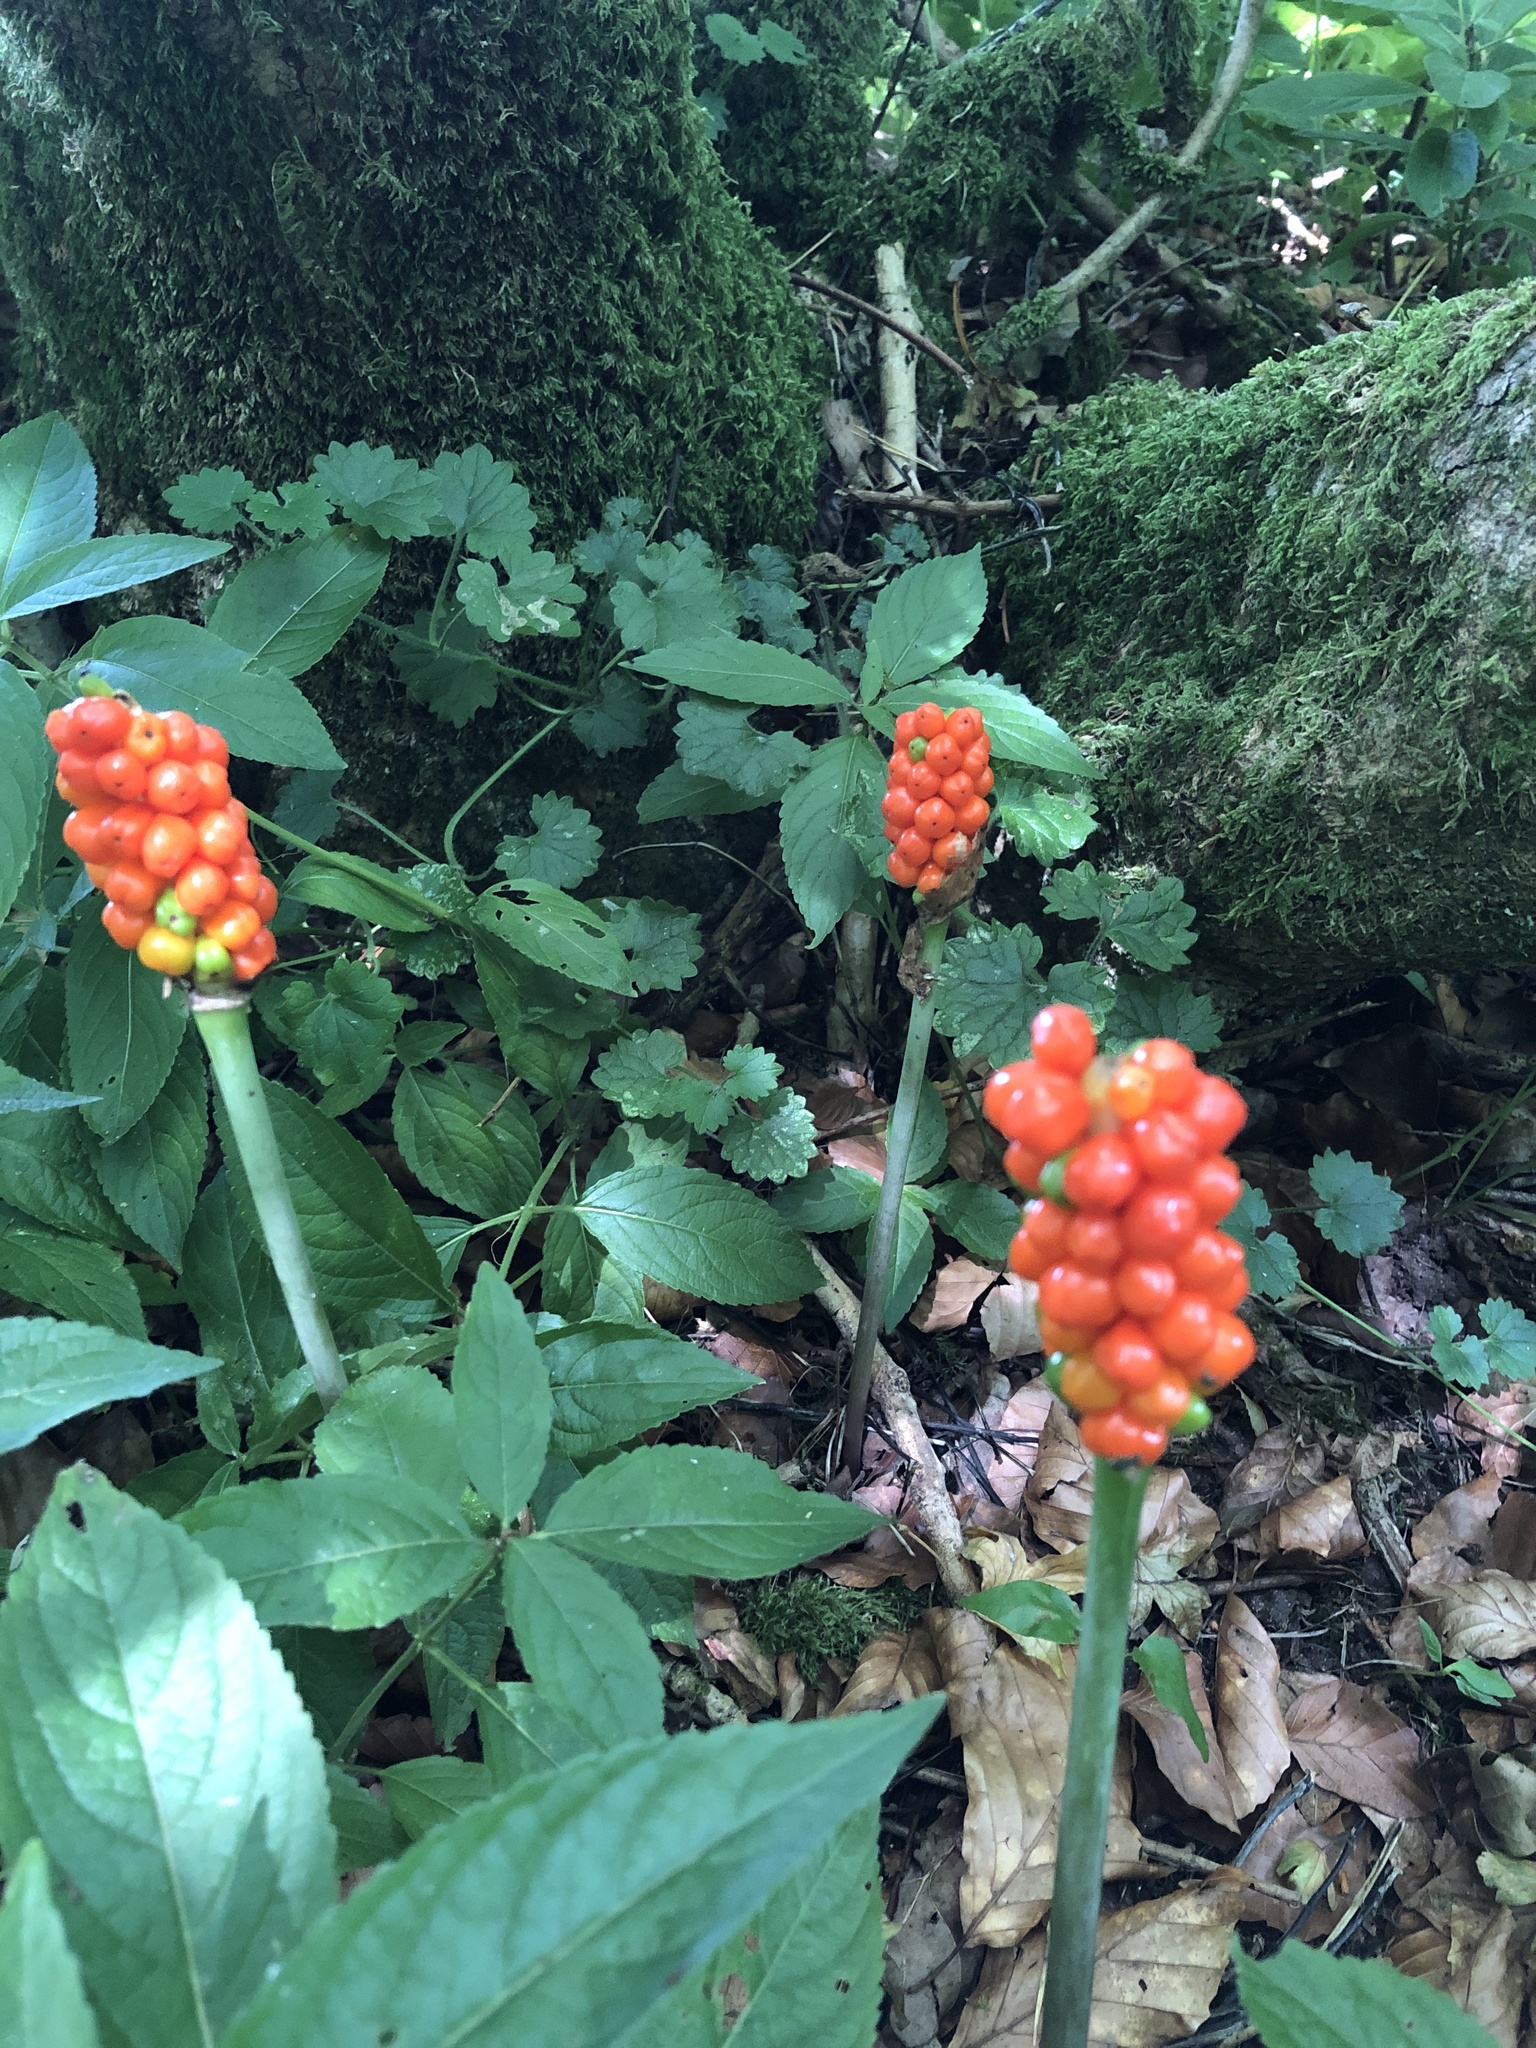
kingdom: Plantae
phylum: Tracheophyta
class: Liliopsida
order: Alismatales
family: Araceae
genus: Arum
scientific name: Arum maculatum
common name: Lords-and-ladies
